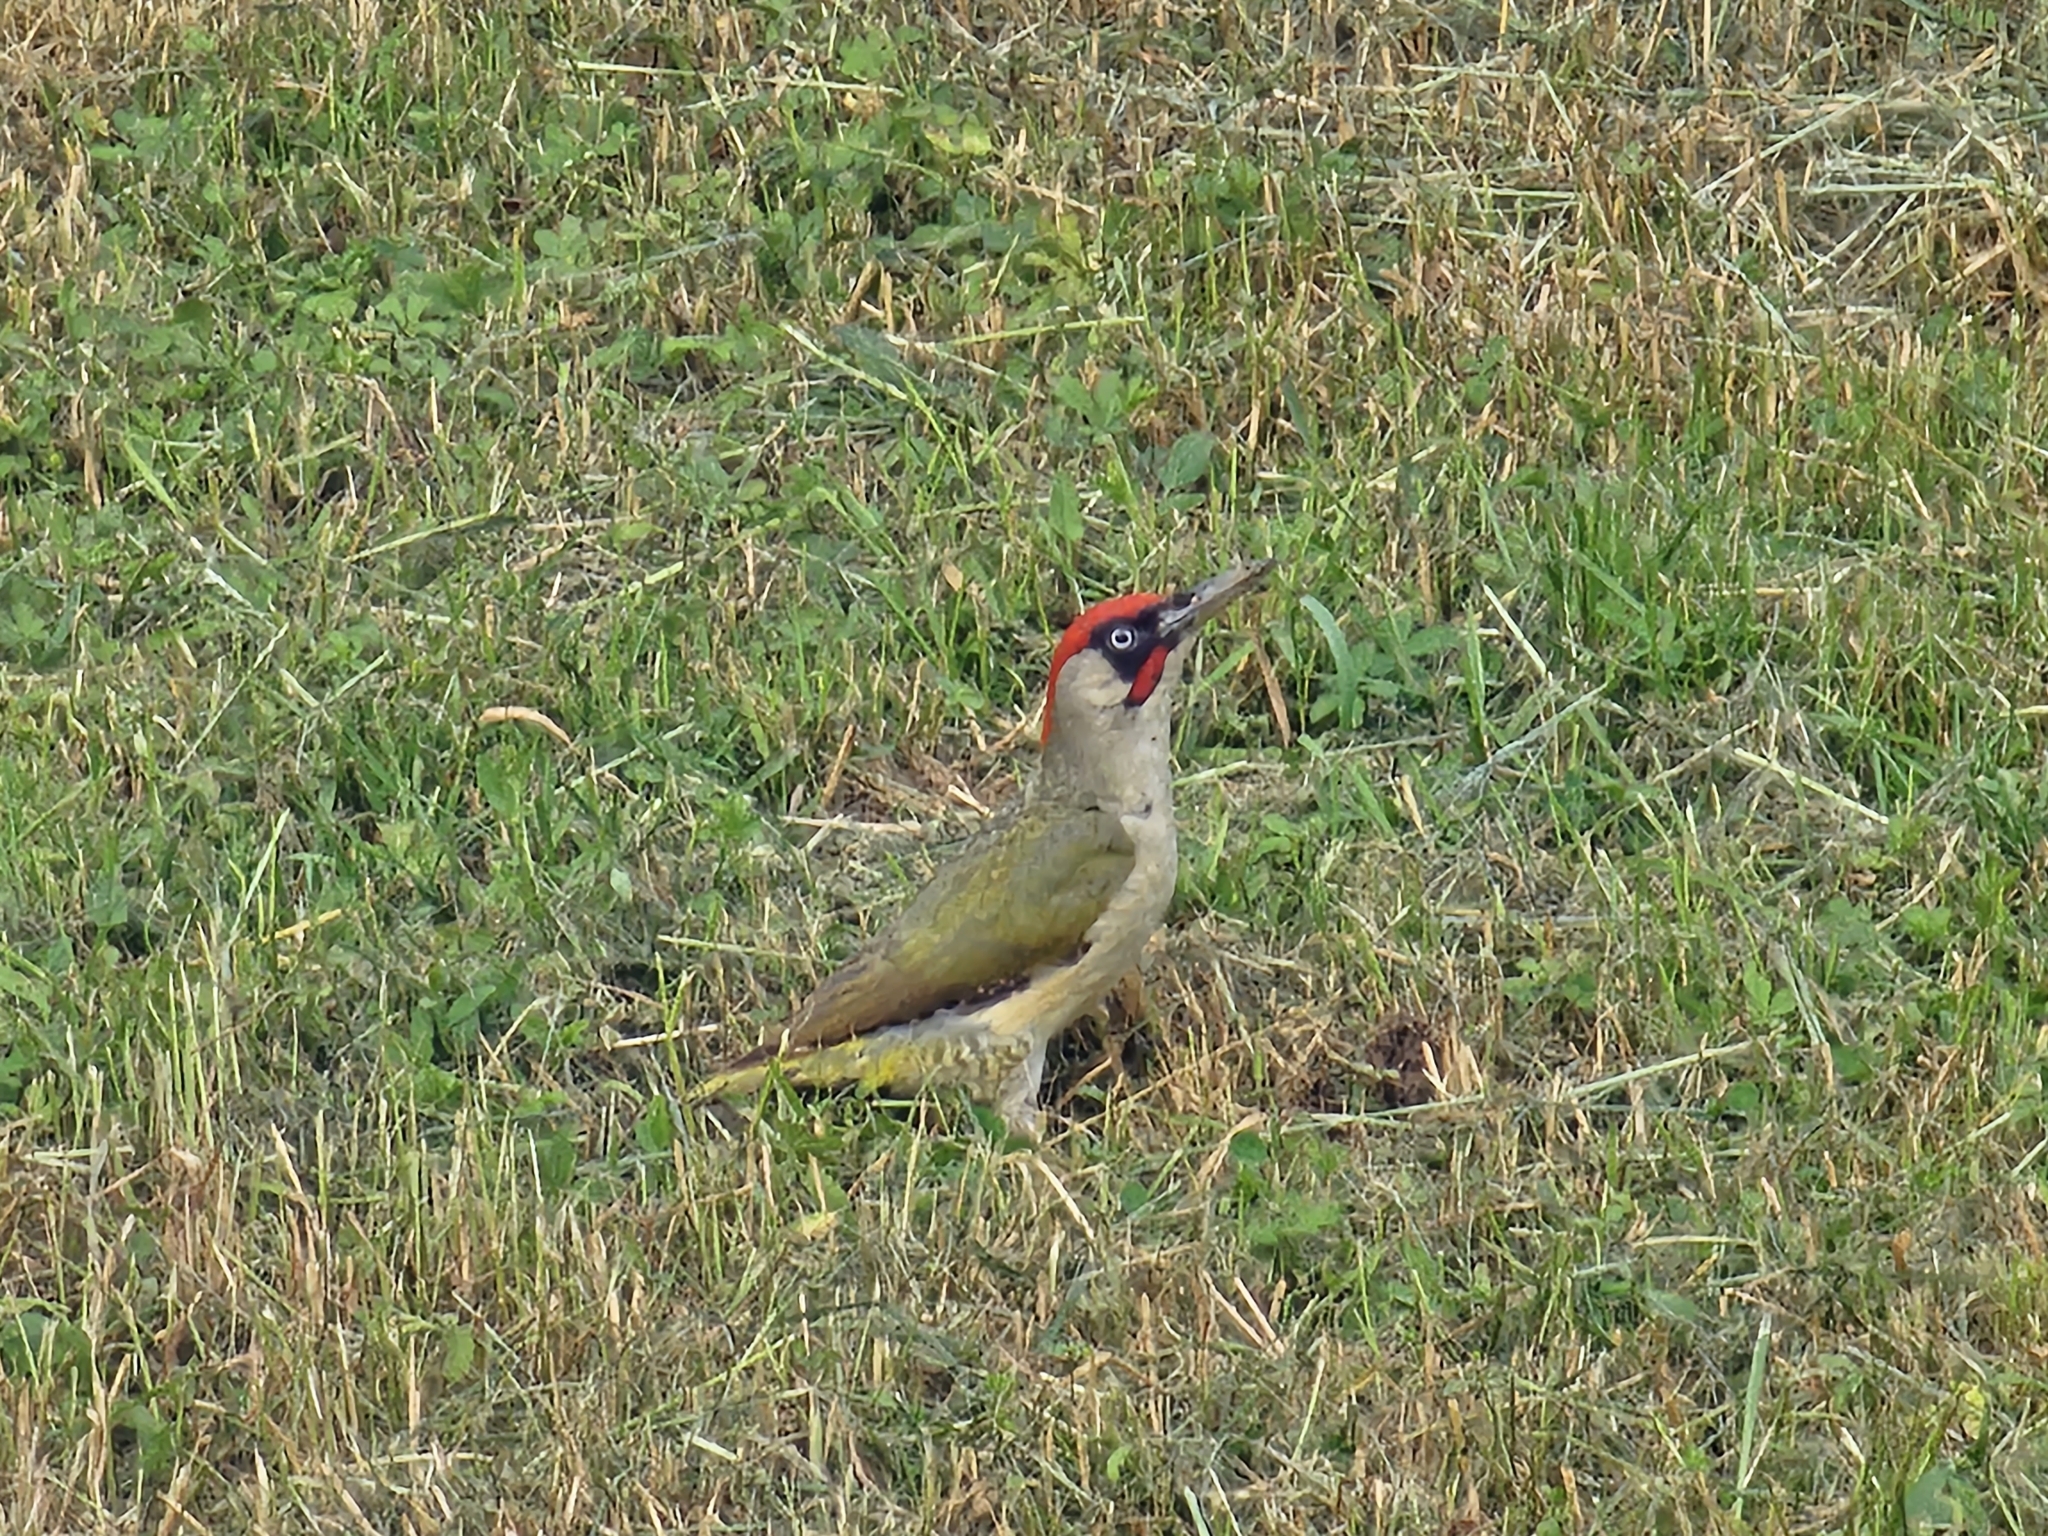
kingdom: Animalia
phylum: Chordata
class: Aves
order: Piciformes
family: Picidae
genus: Picus
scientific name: Picus viridis
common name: European green woodpecker
